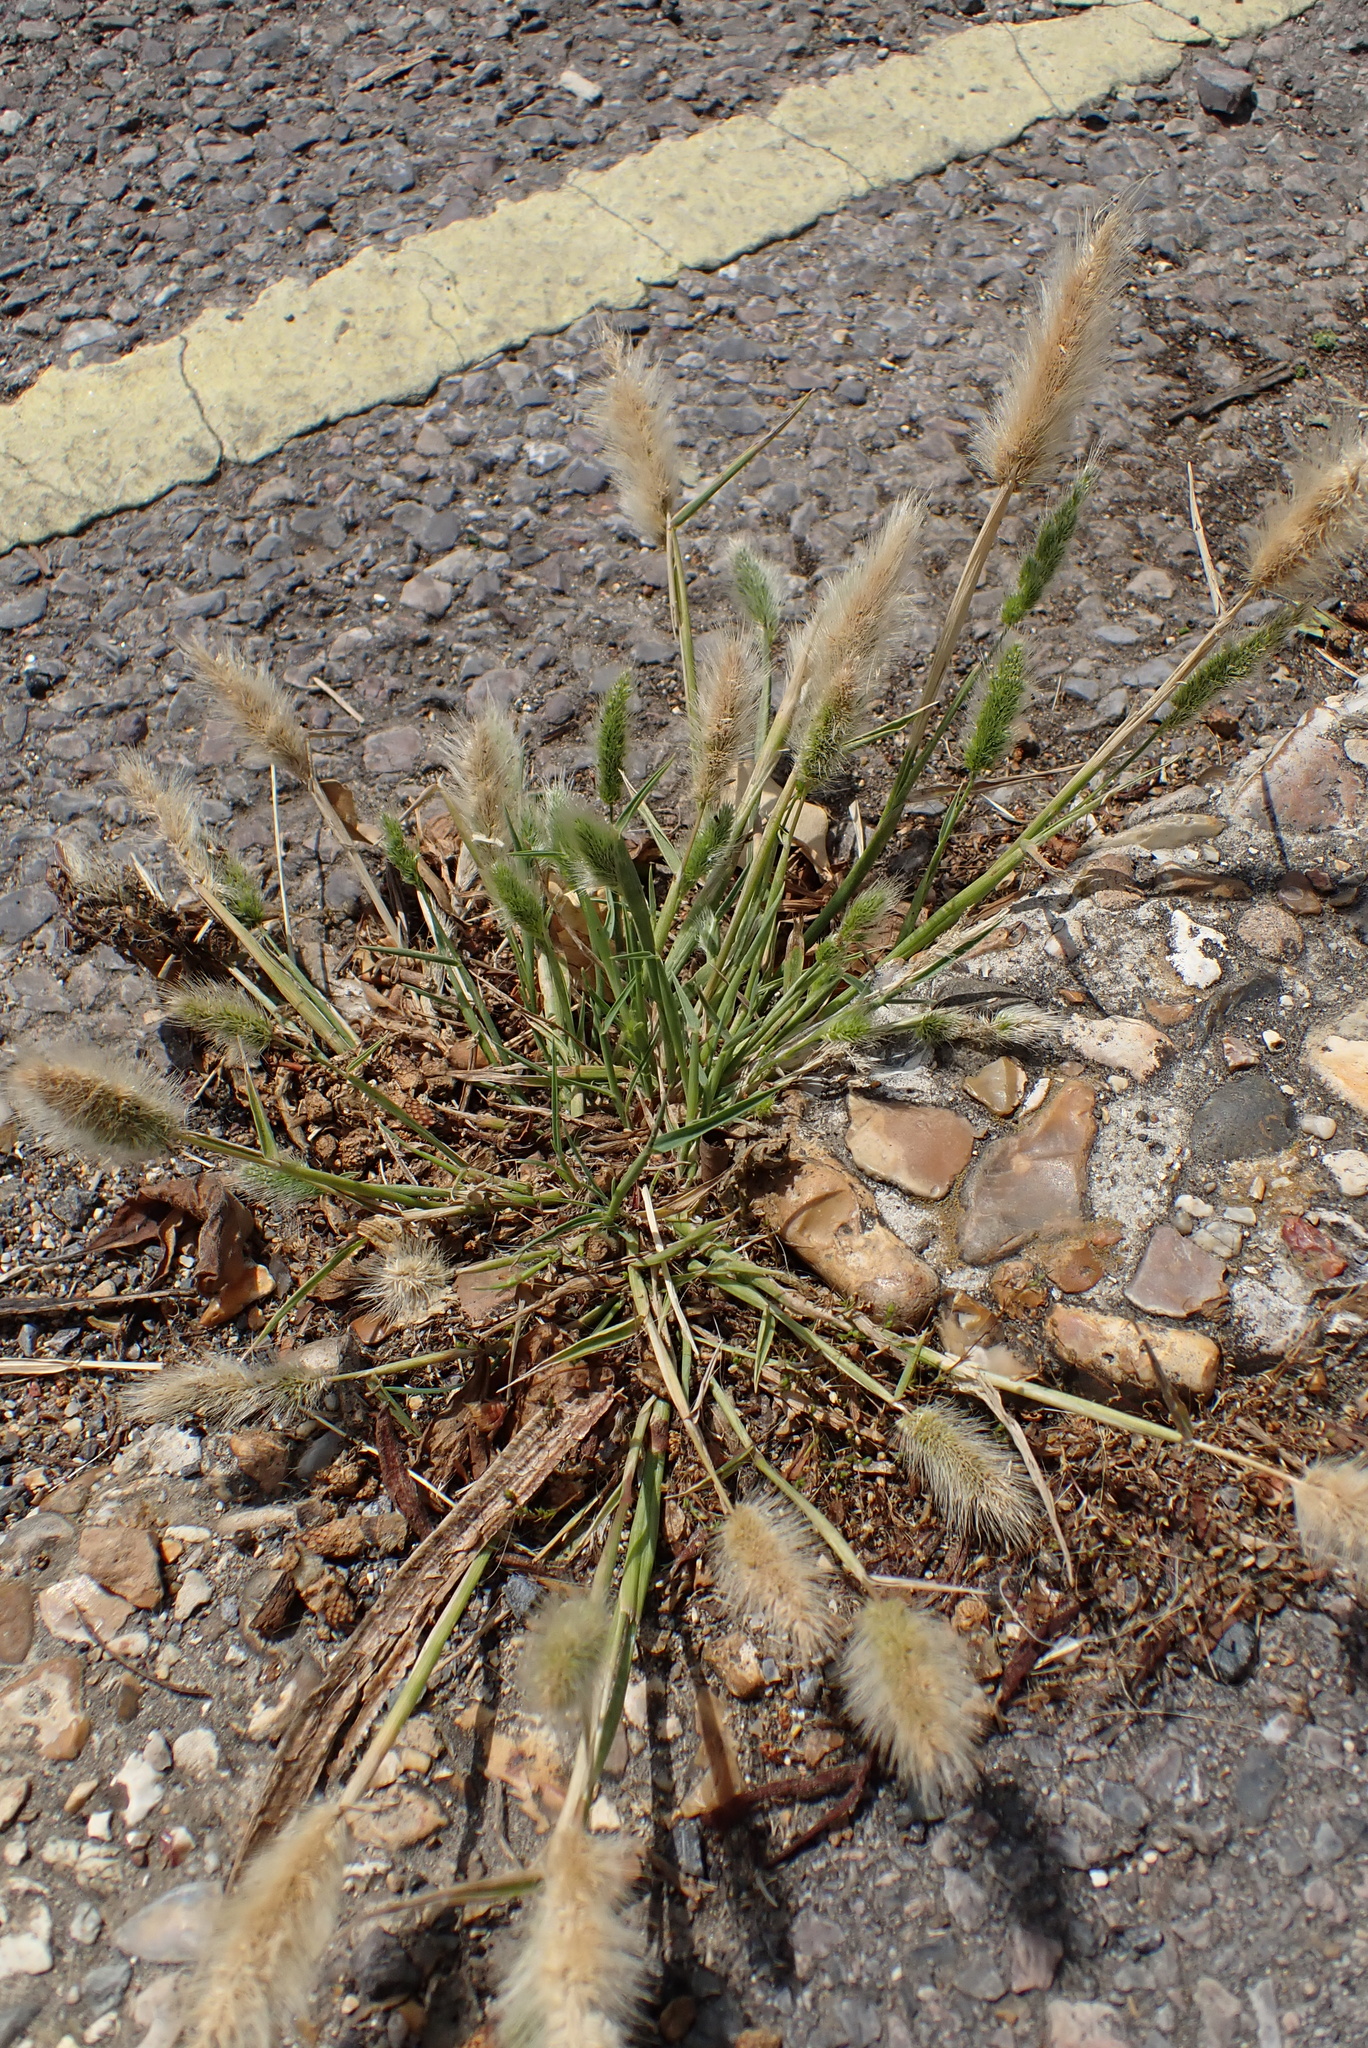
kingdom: Plantae
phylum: Tracheophyta
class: Liliopsida
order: Poales
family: Poaceae
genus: Polypogon
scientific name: Polypogon monspeliensis
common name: Annual rabbitsfoot grass
